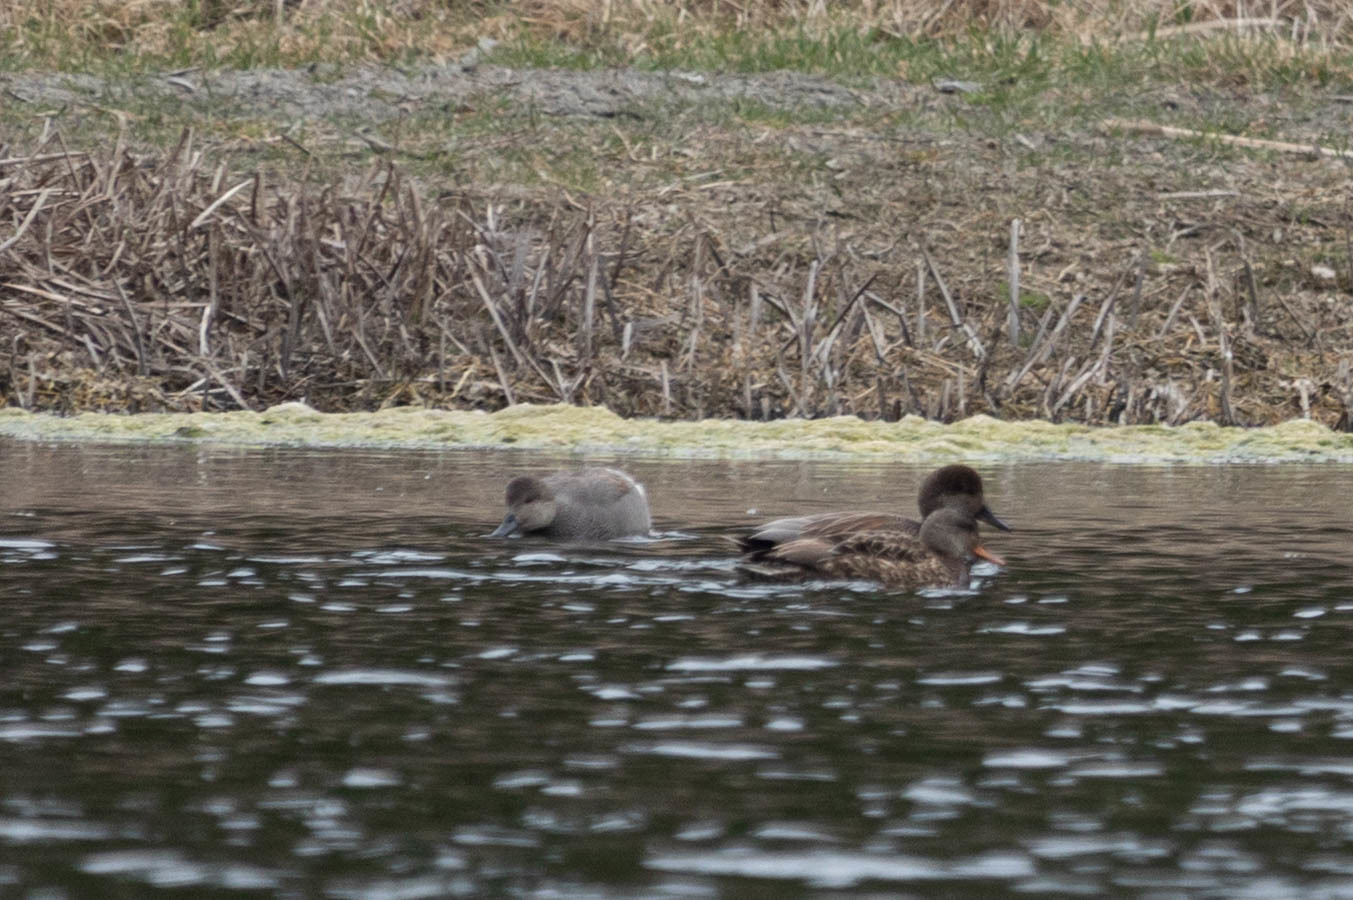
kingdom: Animalia
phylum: Chordata
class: Aves
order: Anseriformes
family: Anatidae
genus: Mareca
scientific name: Mareca strepera
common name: Gadwall
